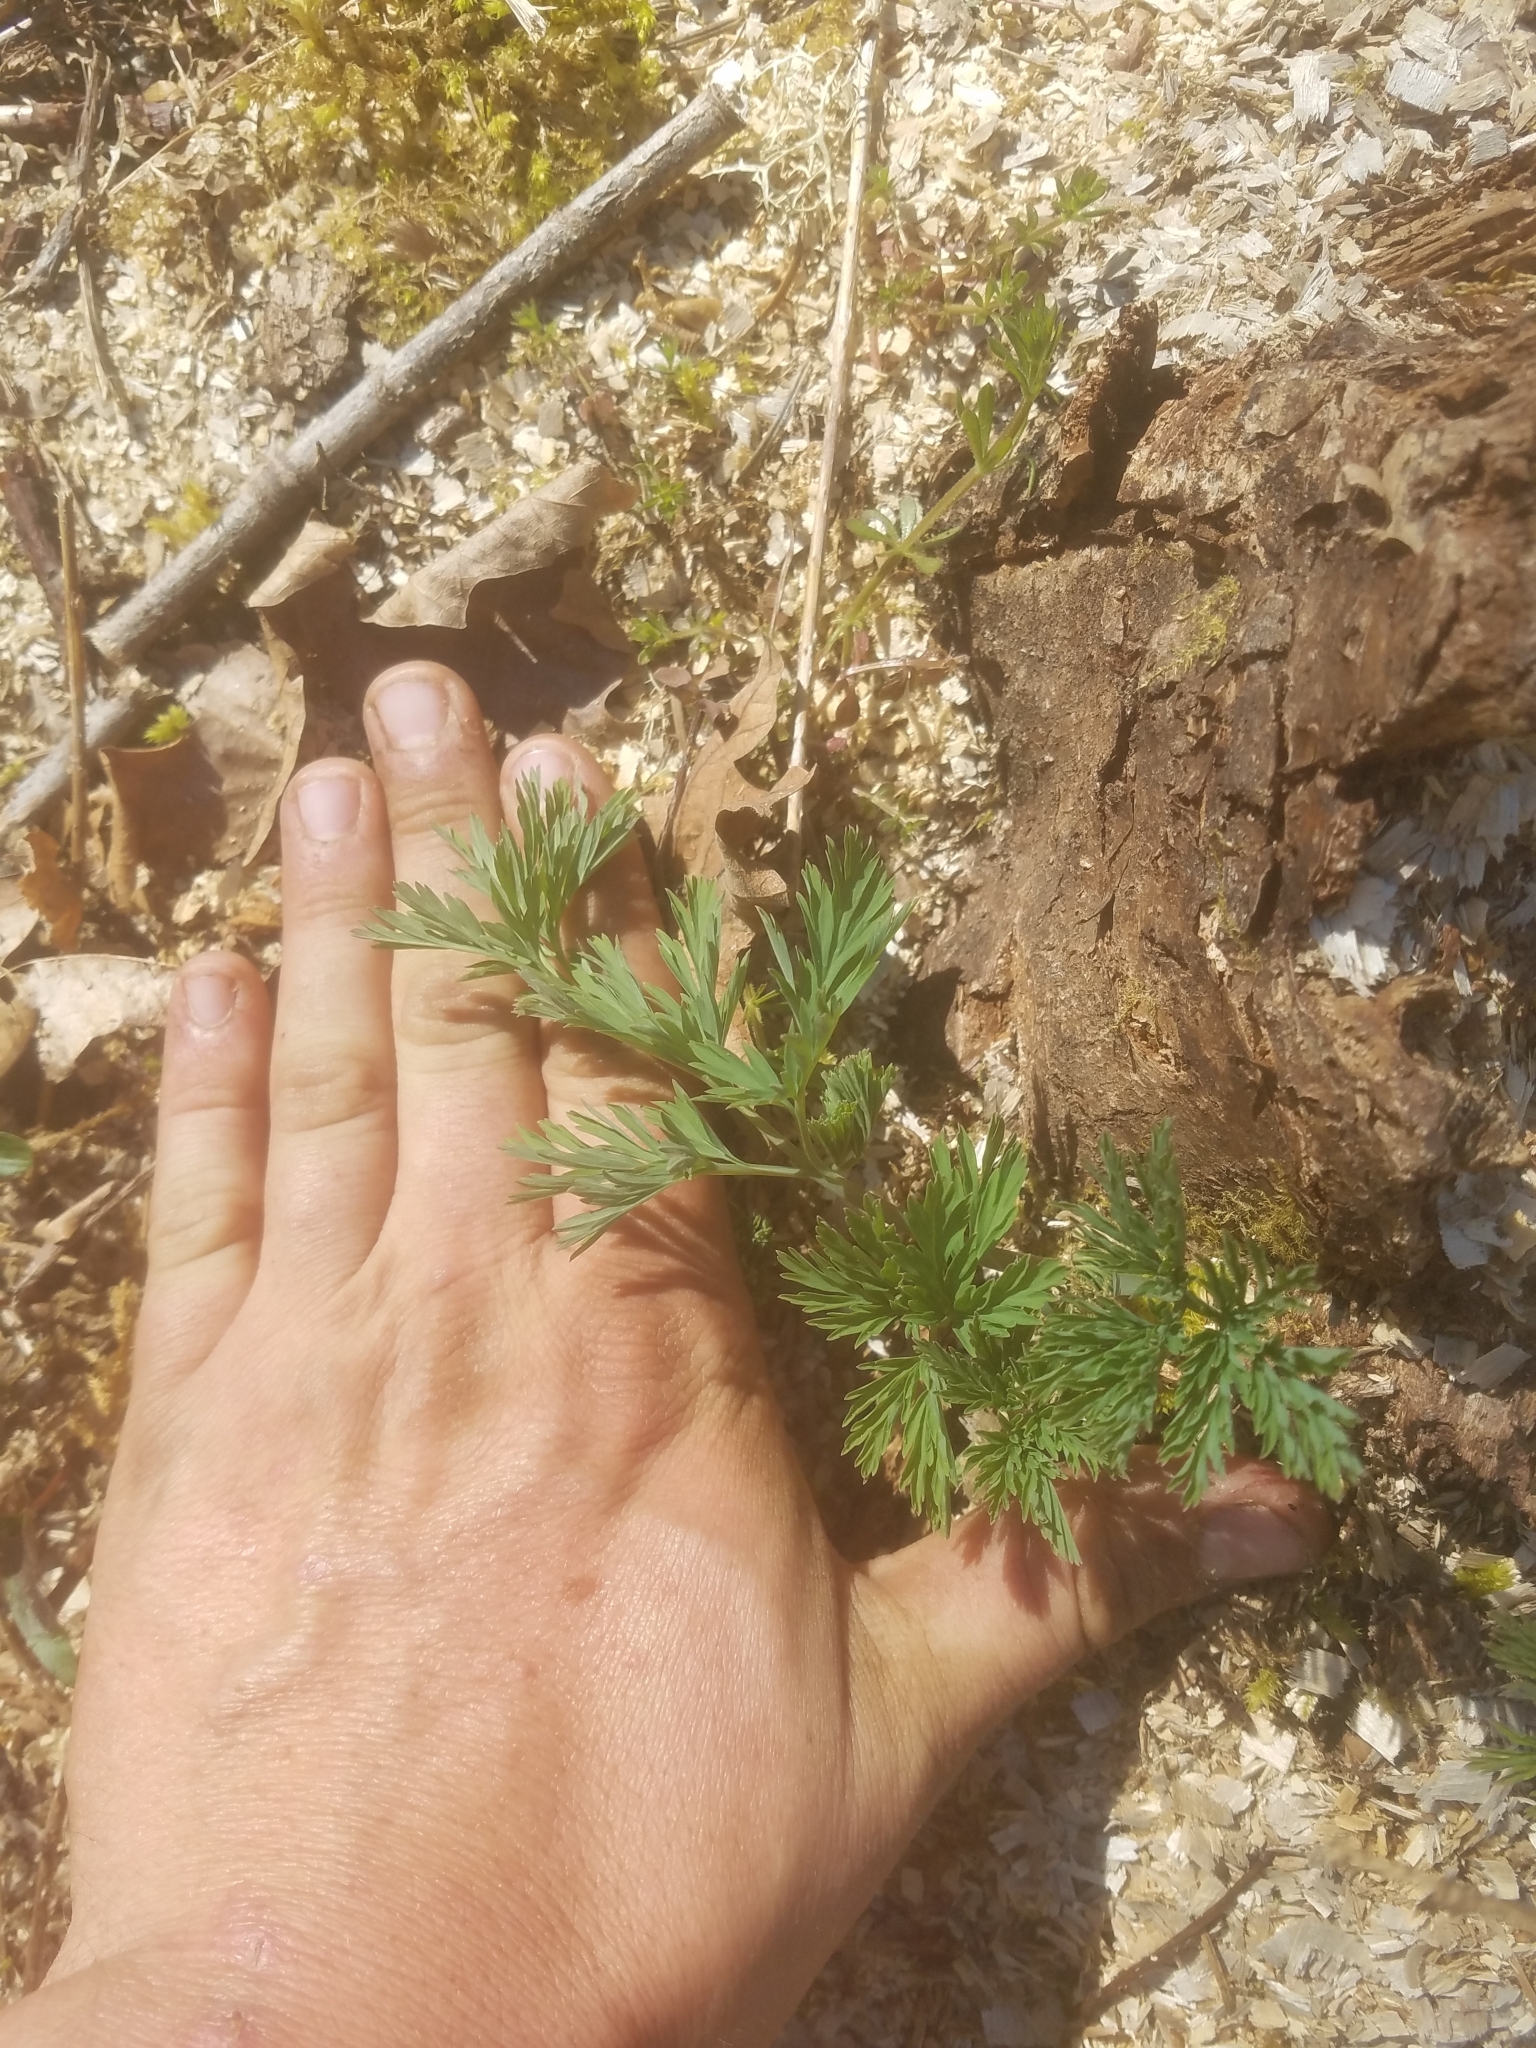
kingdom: Plantae
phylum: Tracheophyta
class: Magnoliopsida
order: Ranunculales
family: Papaveraceae
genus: Dicentra
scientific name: Dicentra formosa
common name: Bleeding-heart
